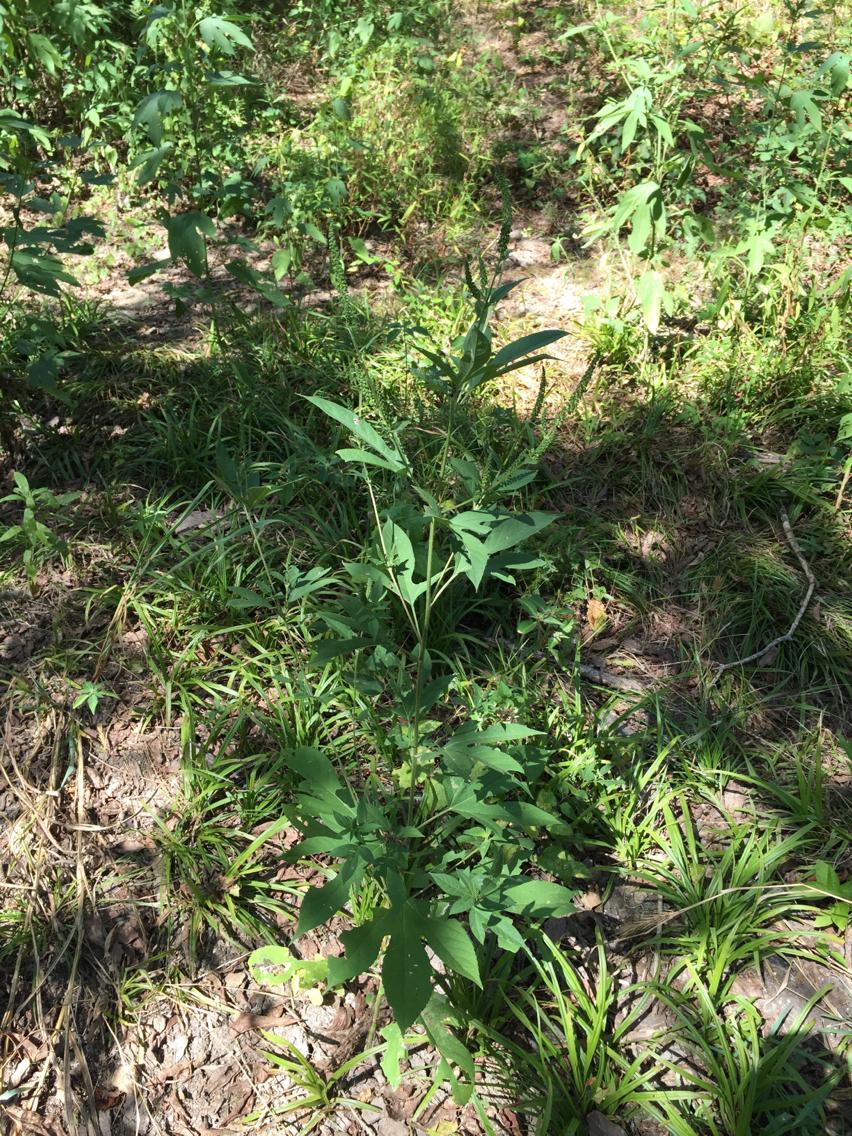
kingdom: Plantae
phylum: Tracheophyta
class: Magnoliopsida
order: Asterales
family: Asteraceae
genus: Ambrosia
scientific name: Ambrosia trifida
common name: Giant ragweed
